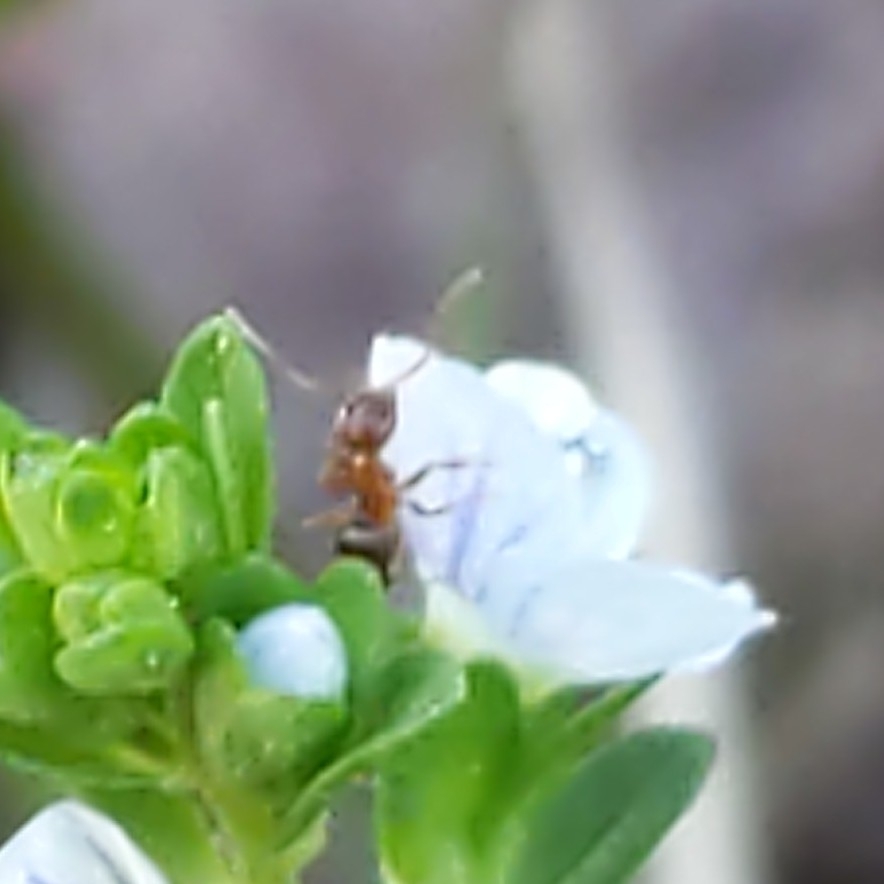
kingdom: Animalia
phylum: Arthropoda
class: Insecta
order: Hymenoptera
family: Formicidae
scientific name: Formicidae
